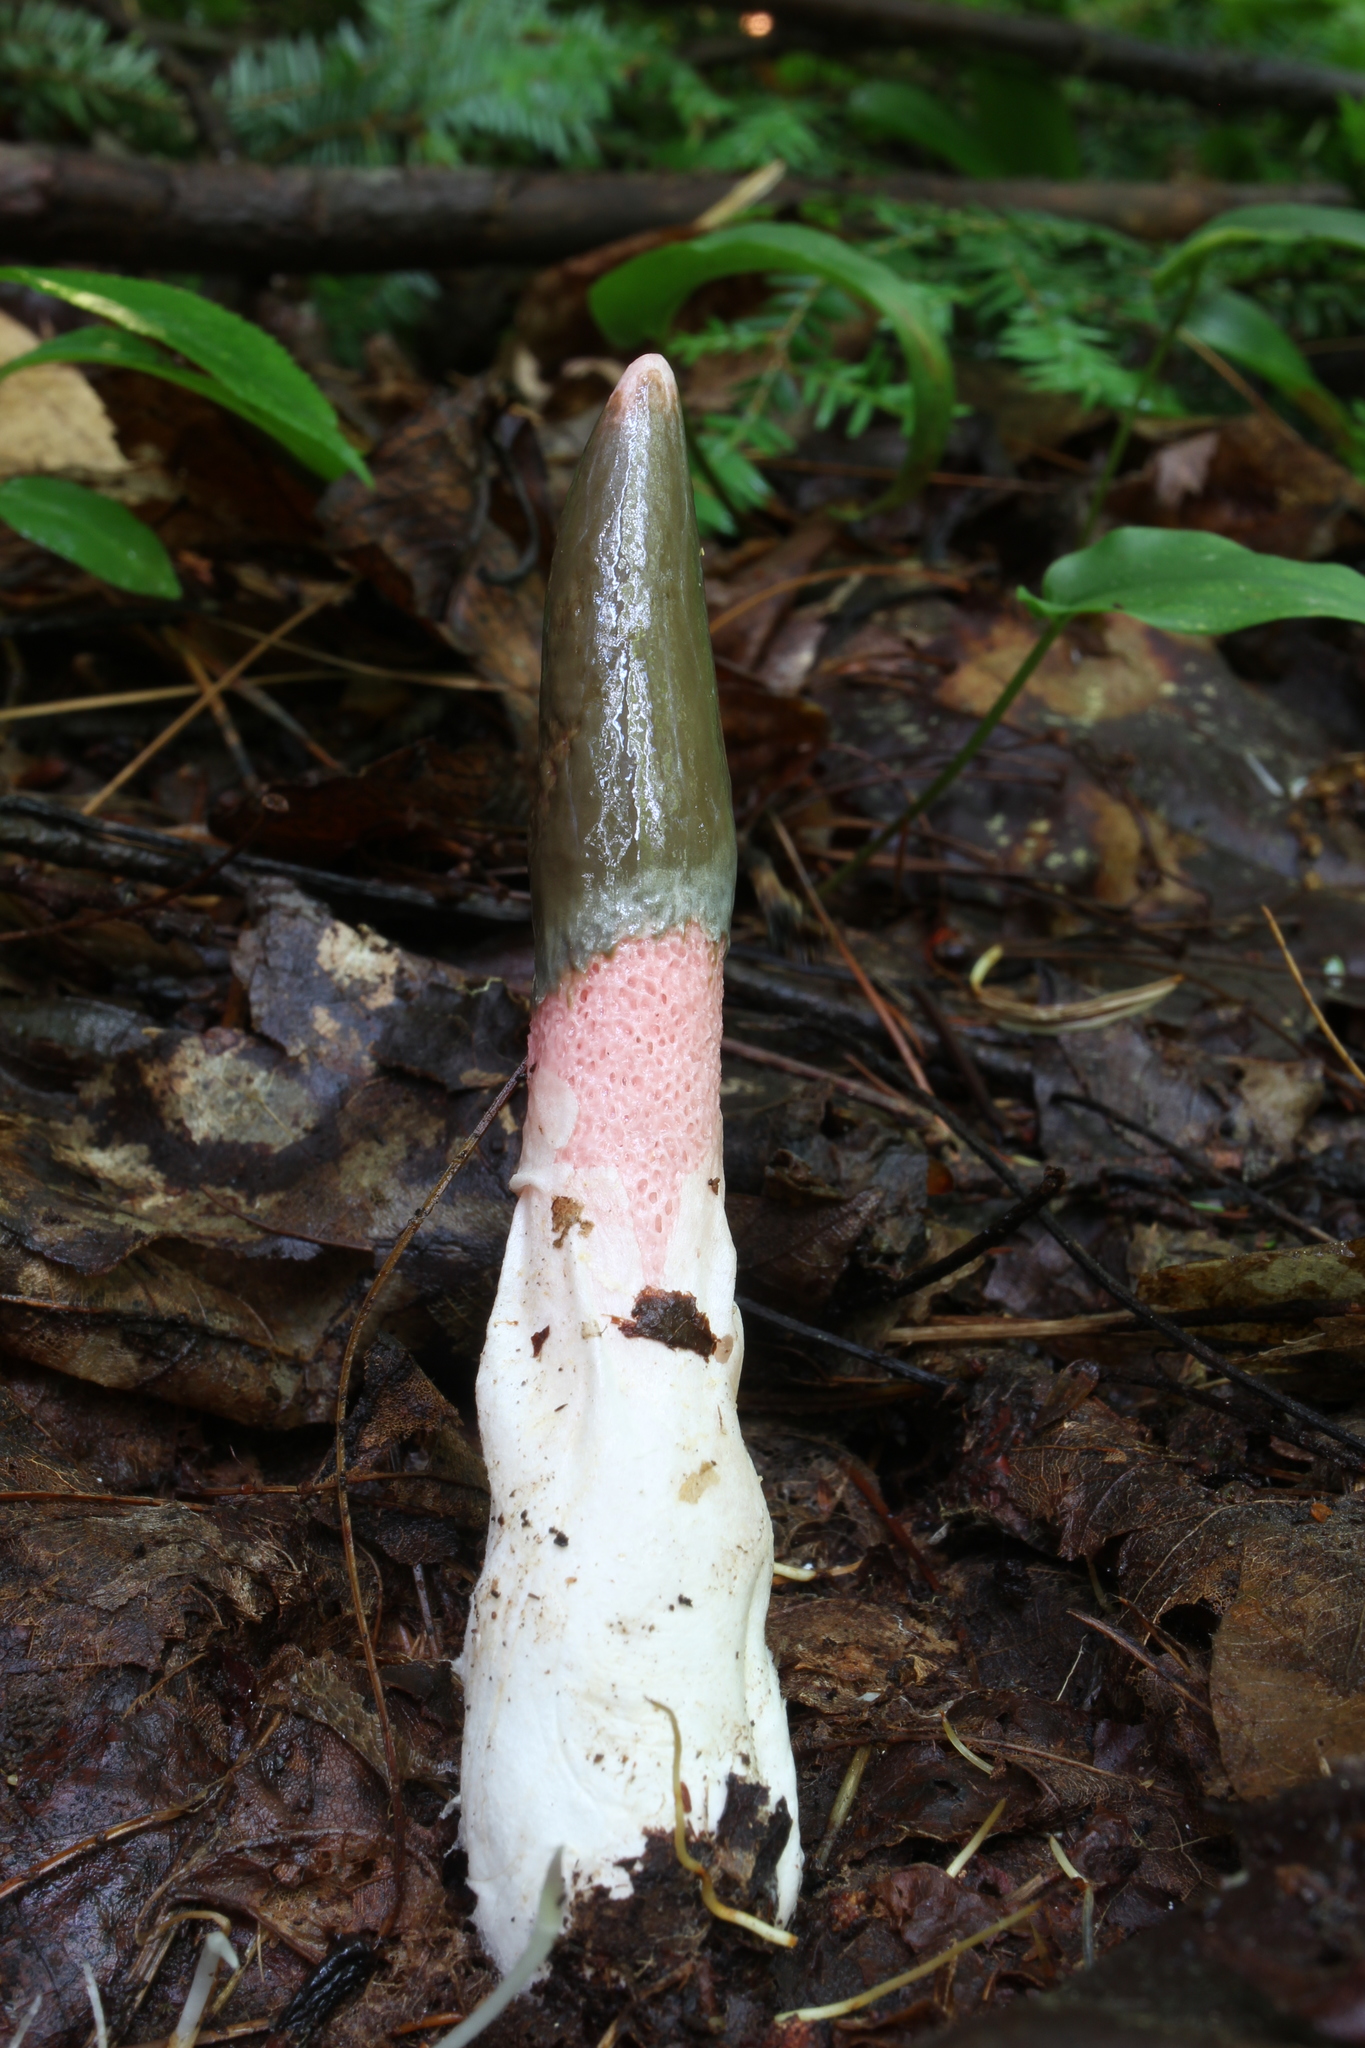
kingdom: Fungi
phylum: Basidiomycota
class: Agaricomycetes
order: Phallales
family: Phallaceae
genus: Mutinus
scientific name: Mutinus ravenelii
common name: Red stinkhorn
